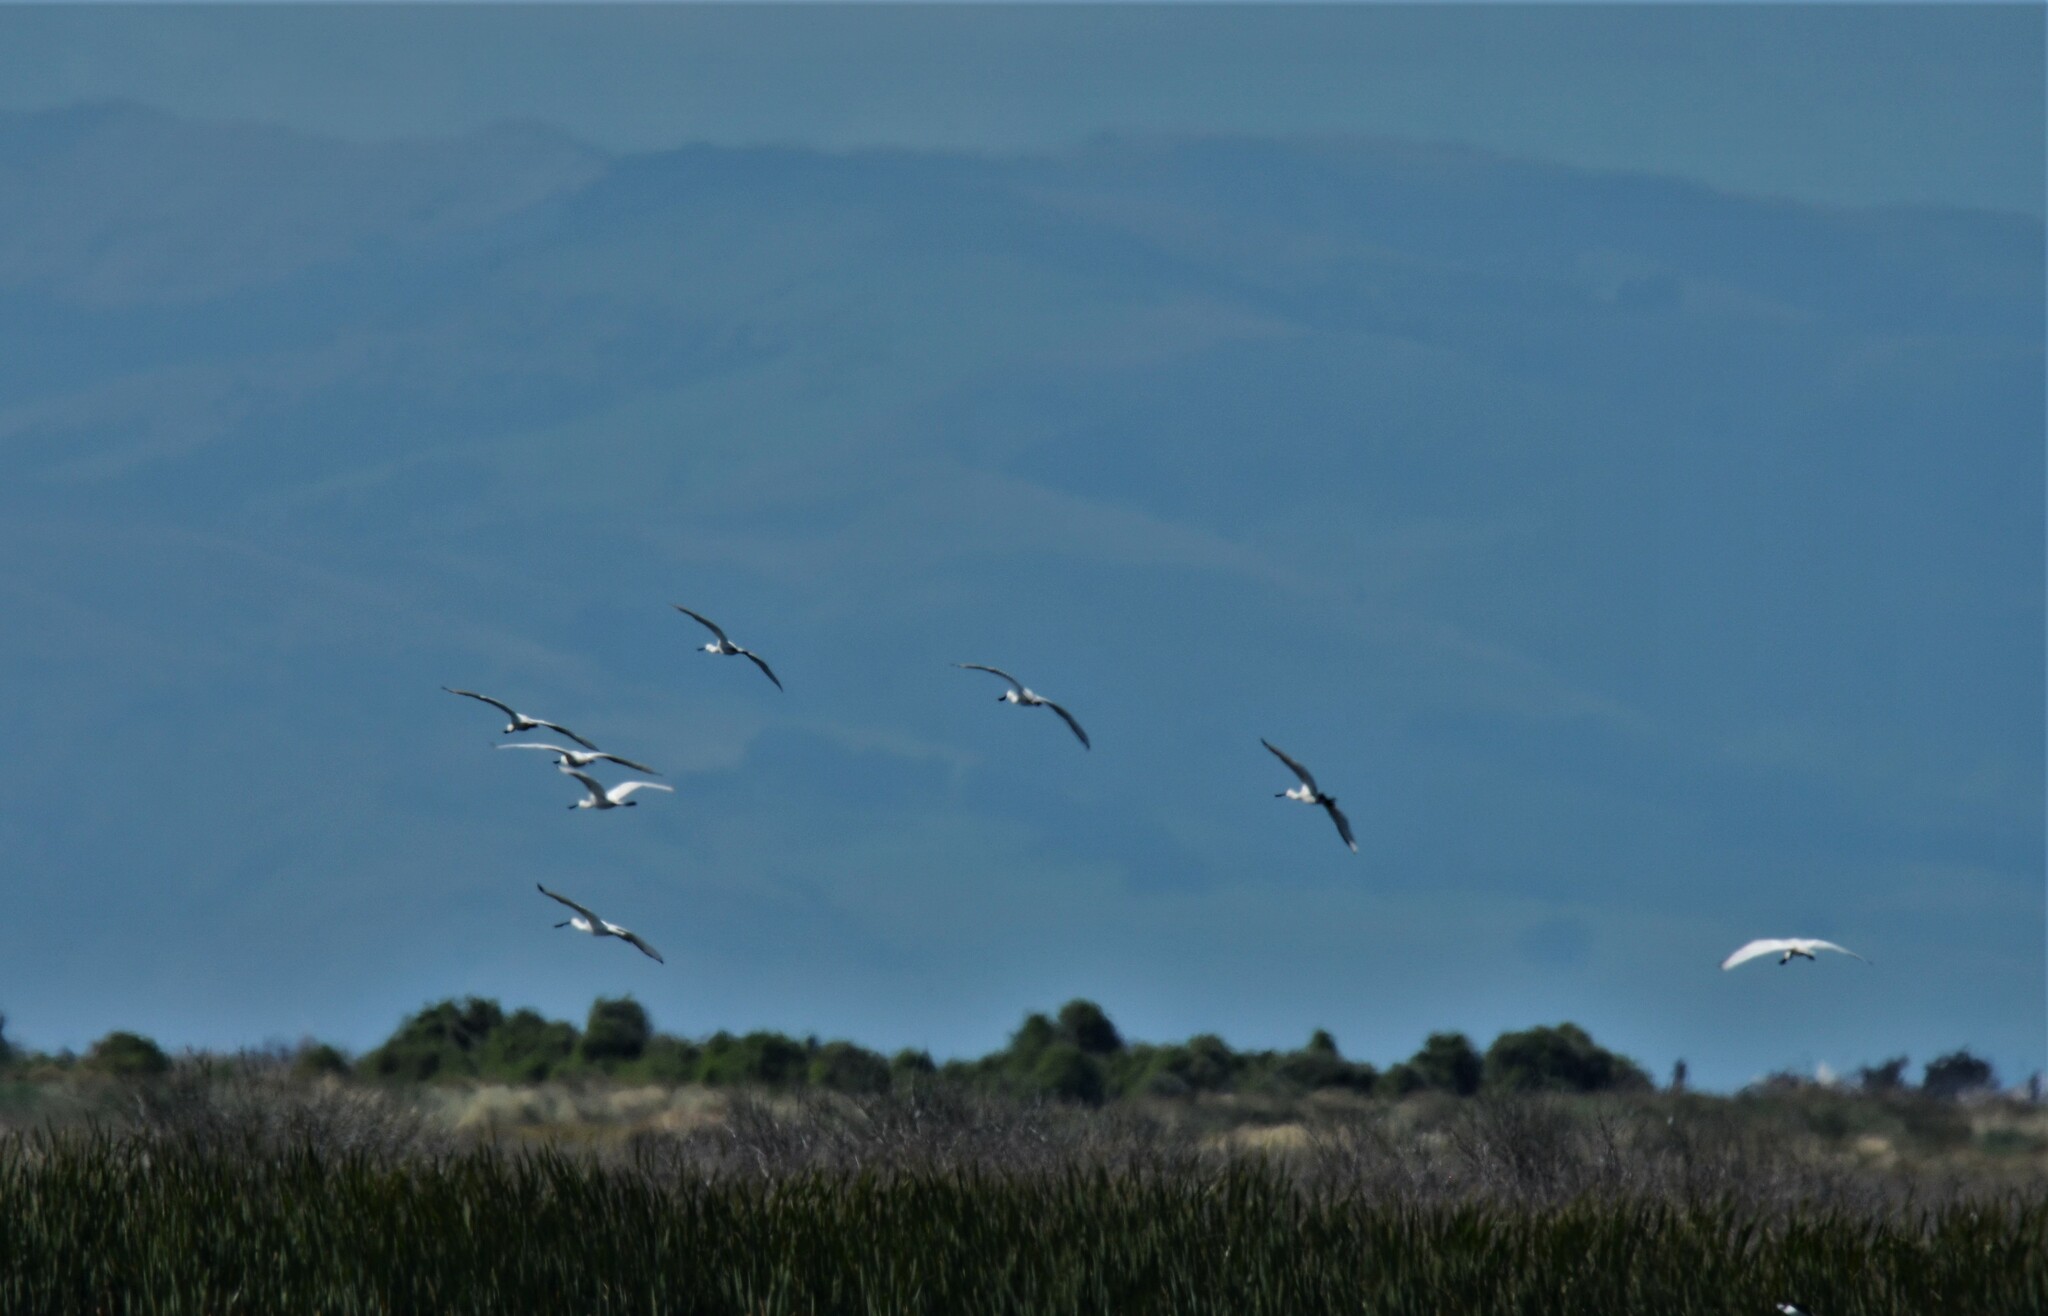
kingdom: Animalia
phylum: Chordata
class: Aves
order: Pelecaniformes
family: Threskiornithidae
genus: Platalea
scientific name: Platalea regia
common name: Royal spoonbill
